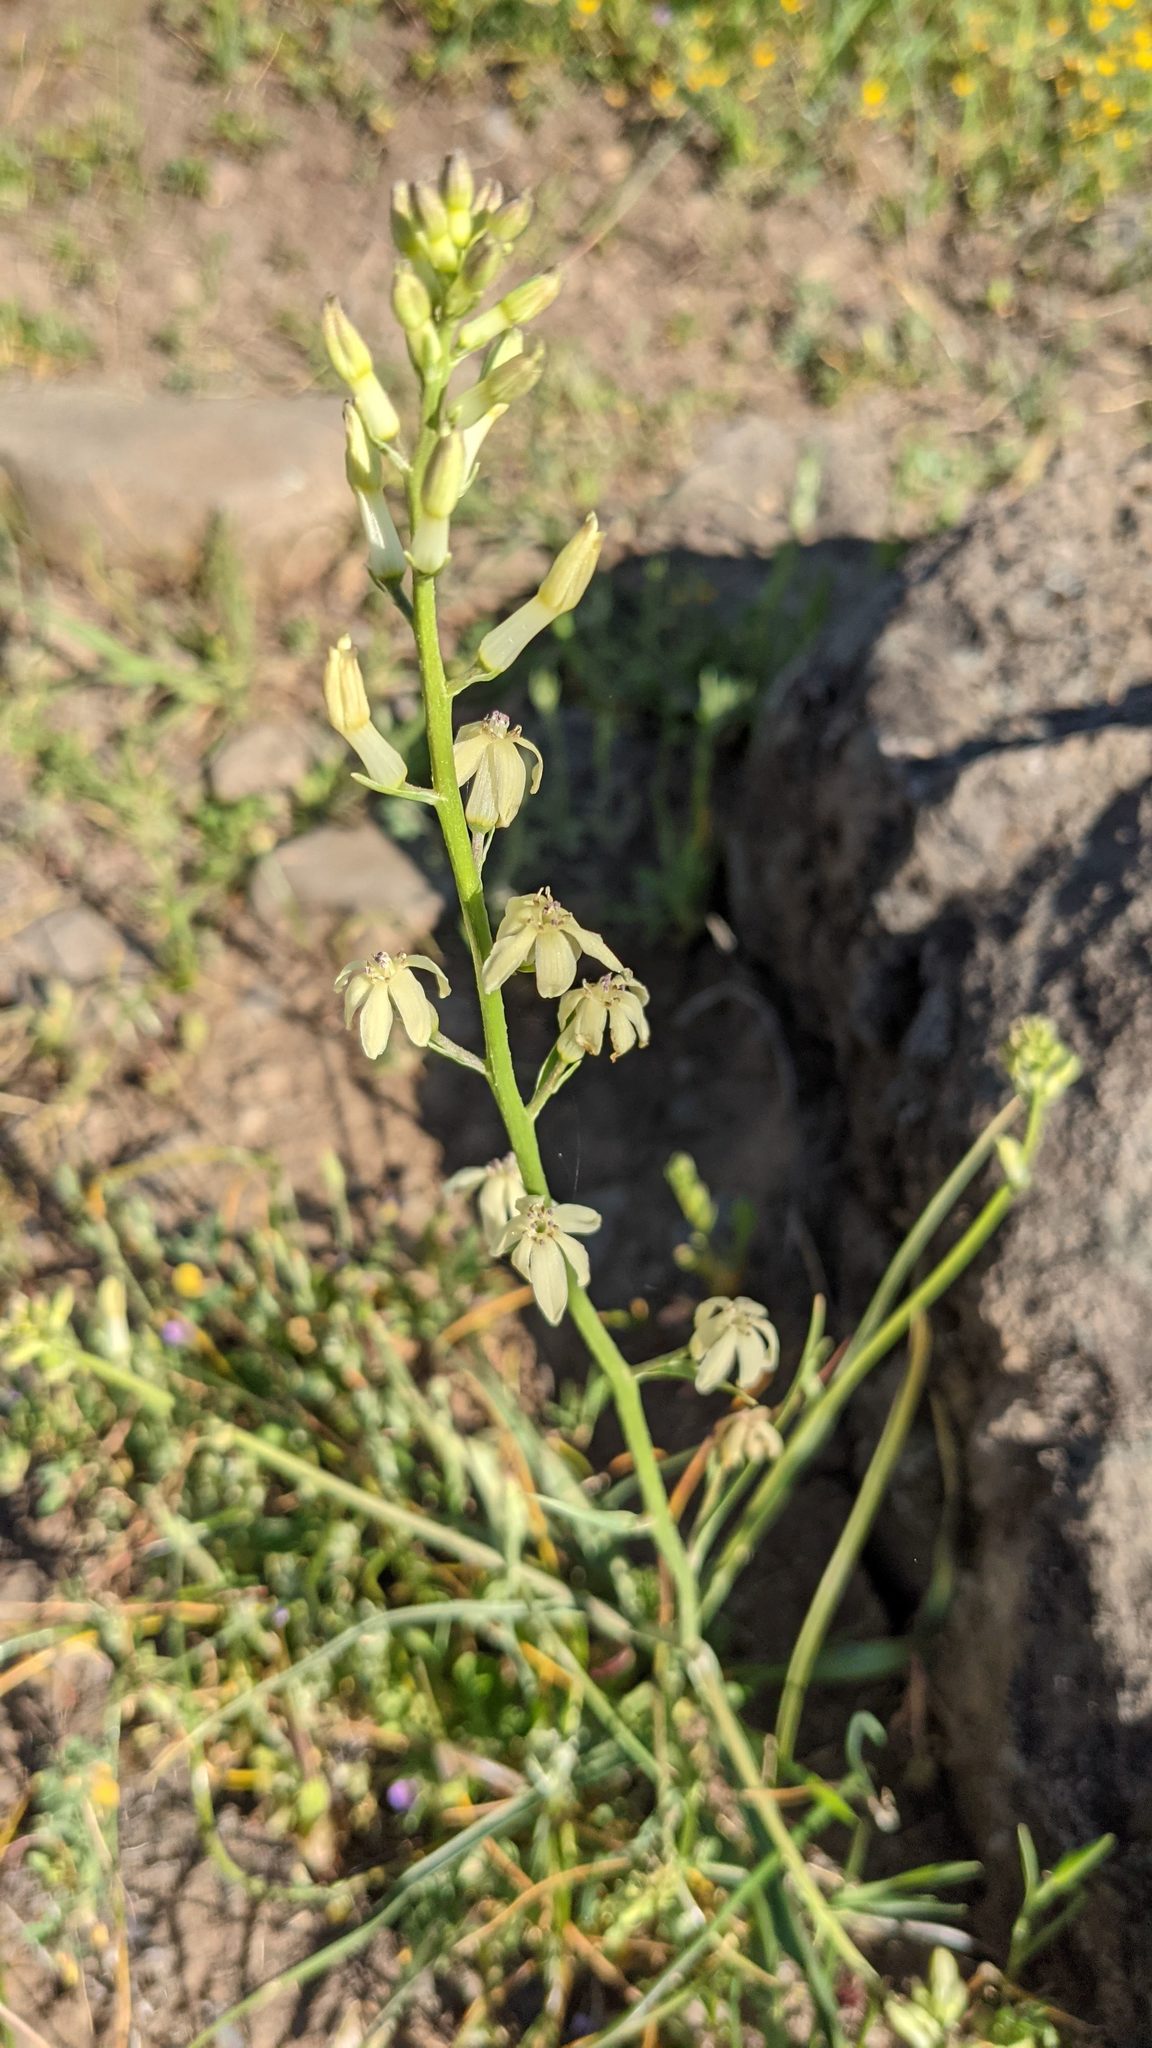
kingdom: Plantae
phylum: Tracheophyta
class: Liliopsida
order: Asparagales
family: Tecophilaeaceae
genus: Odontostomum
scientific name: Odontostomum hartwegii
